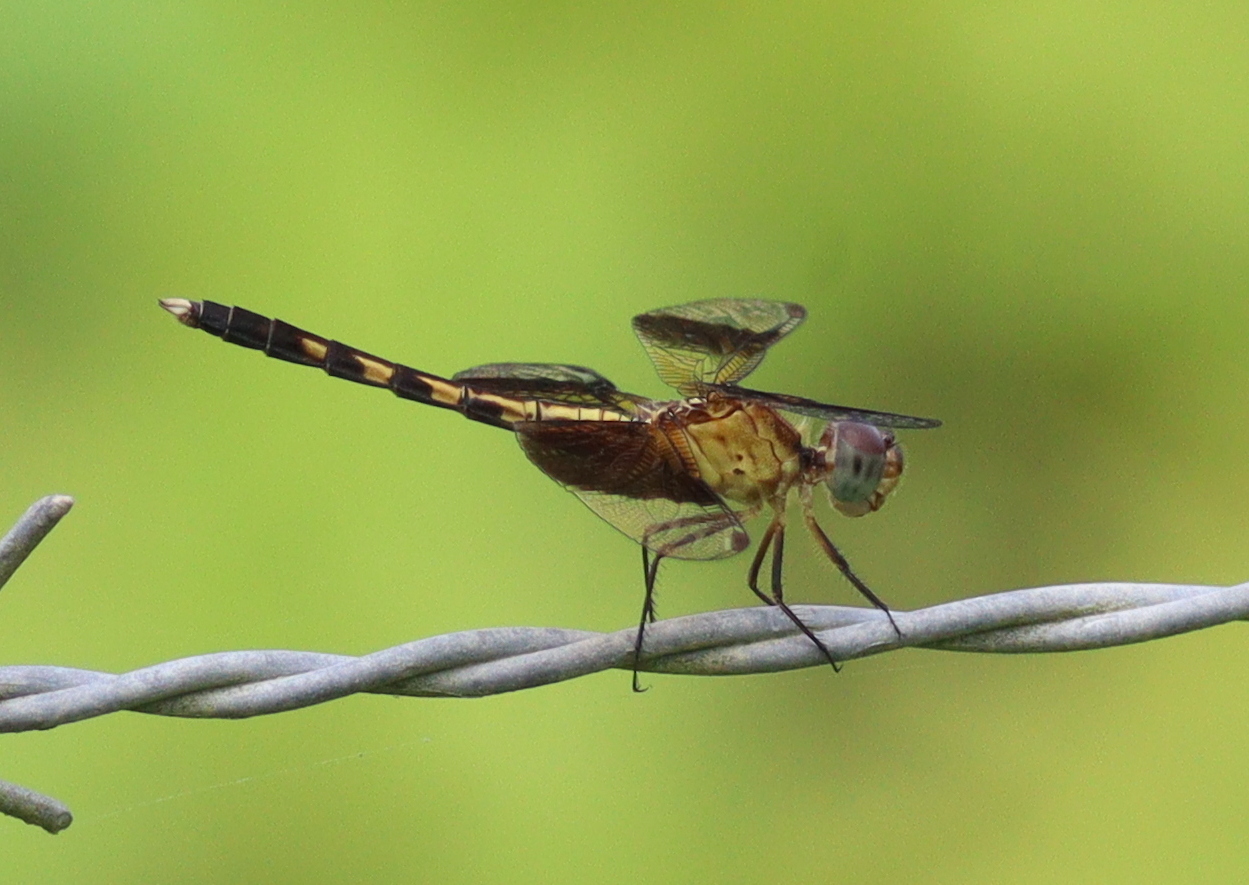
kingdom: Animalia
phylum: Arthropoda
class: Insecta
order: Odonata
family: Libellulidae
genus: Erythrodiplax
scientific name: Erythrodiplax funerea
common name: Black-winged dragonlet
